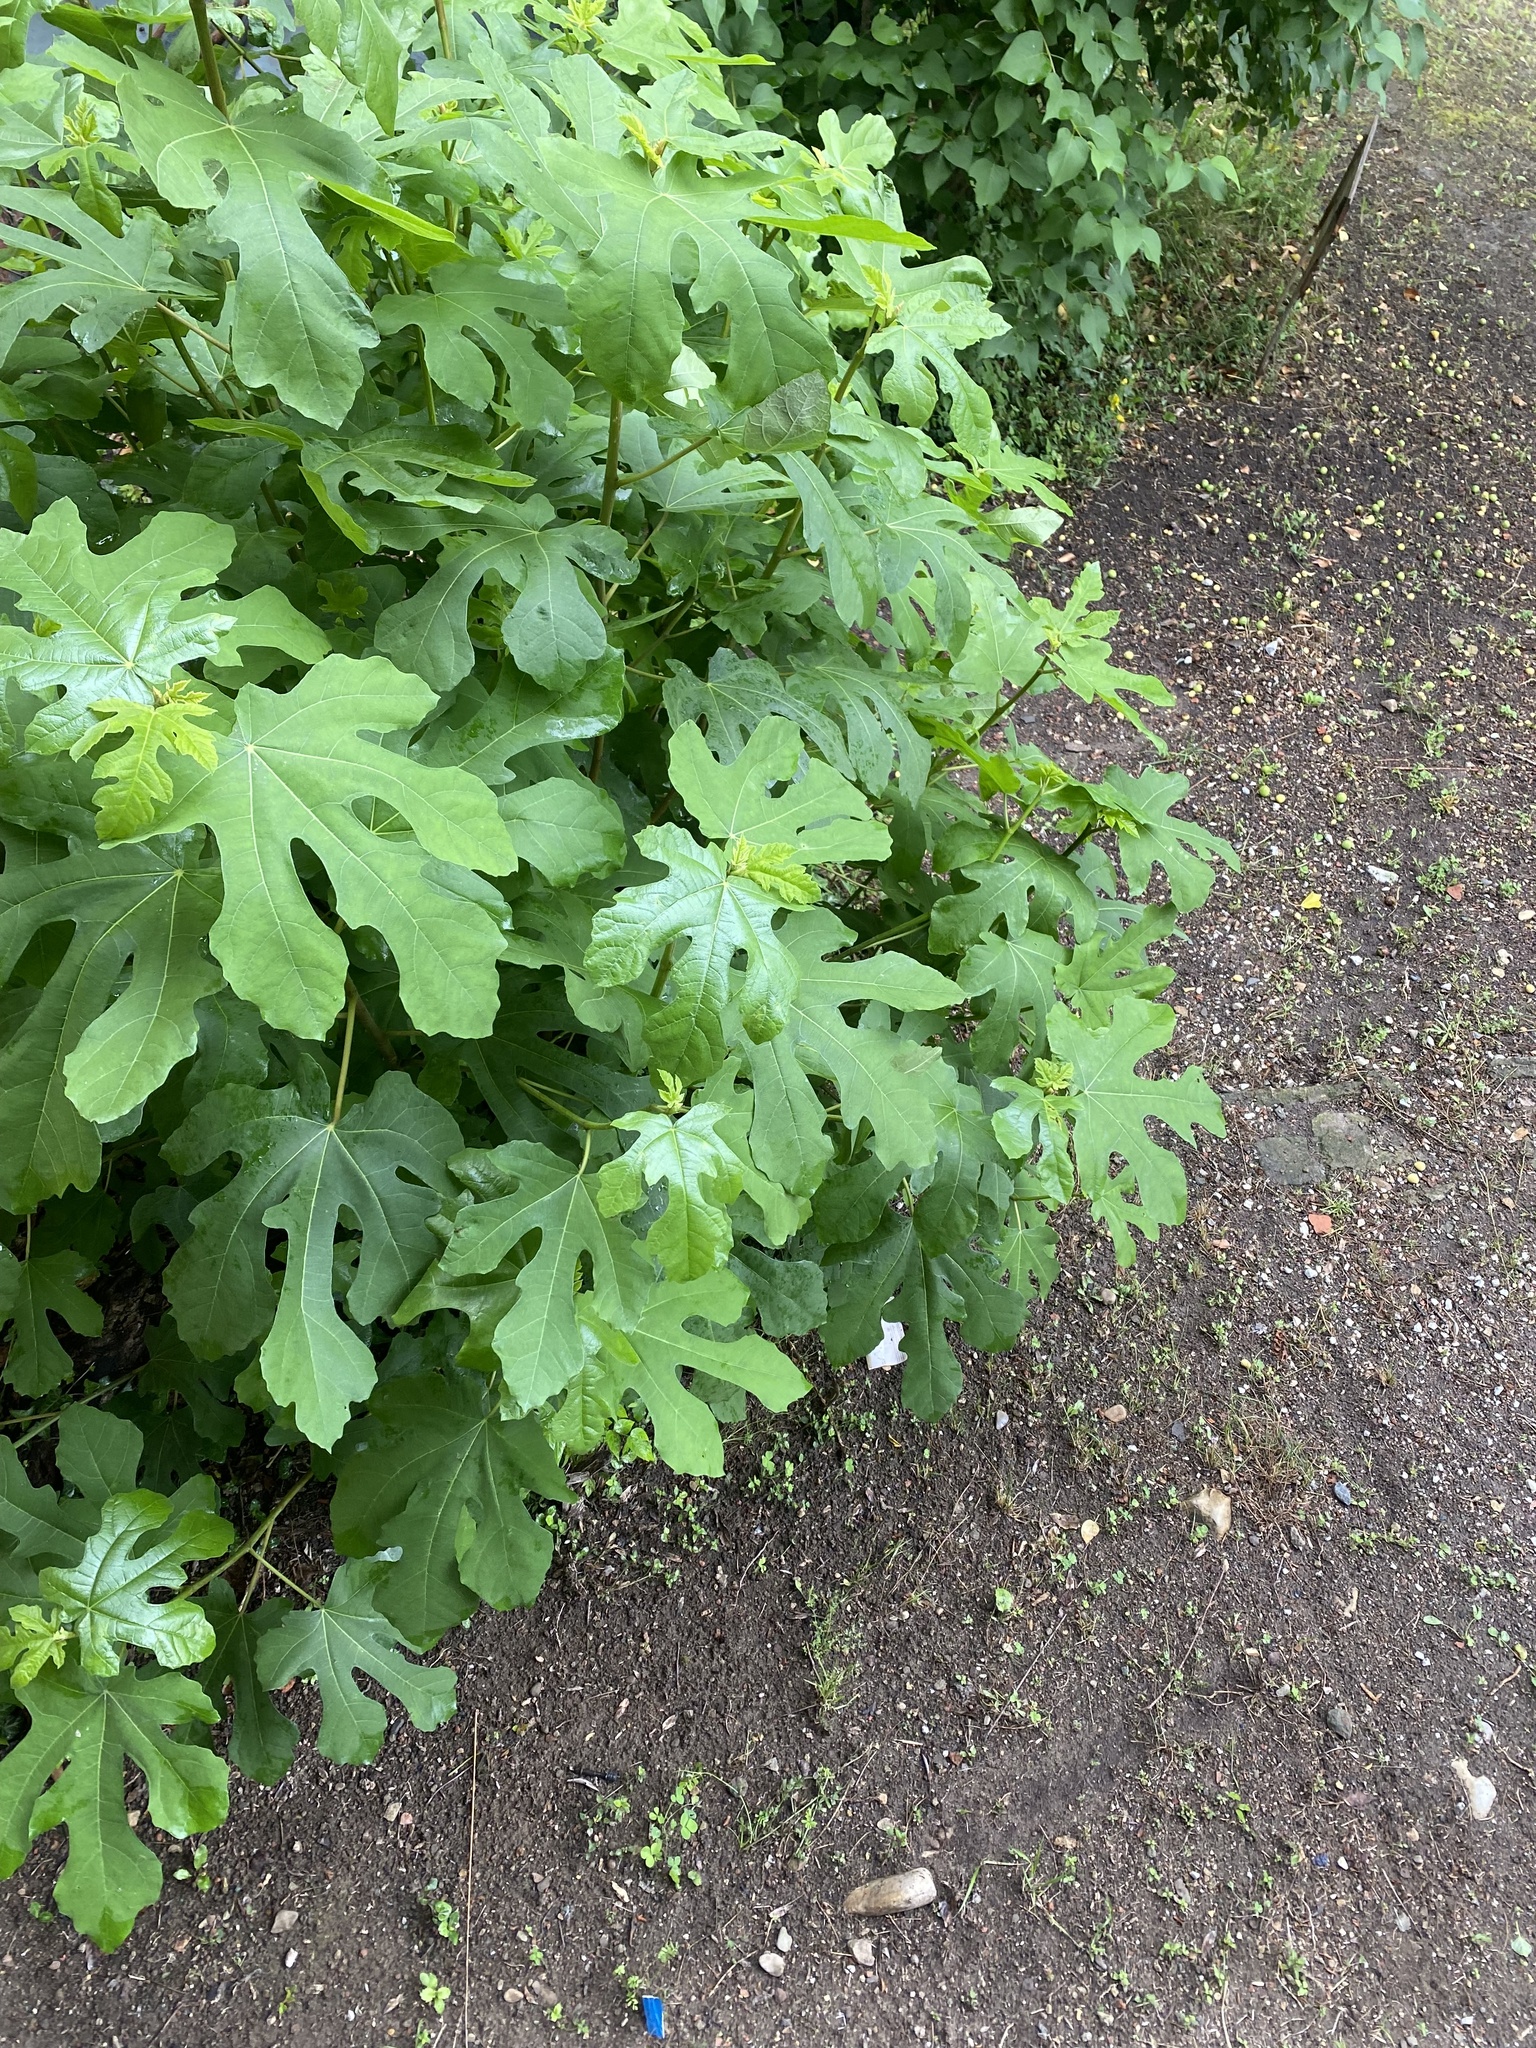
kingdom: Plantae
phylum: Tracheophyta
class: Magnoliopsida
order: Rosales
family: Moraceae
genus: Ficus
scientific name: Ficus carica
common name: Fig
